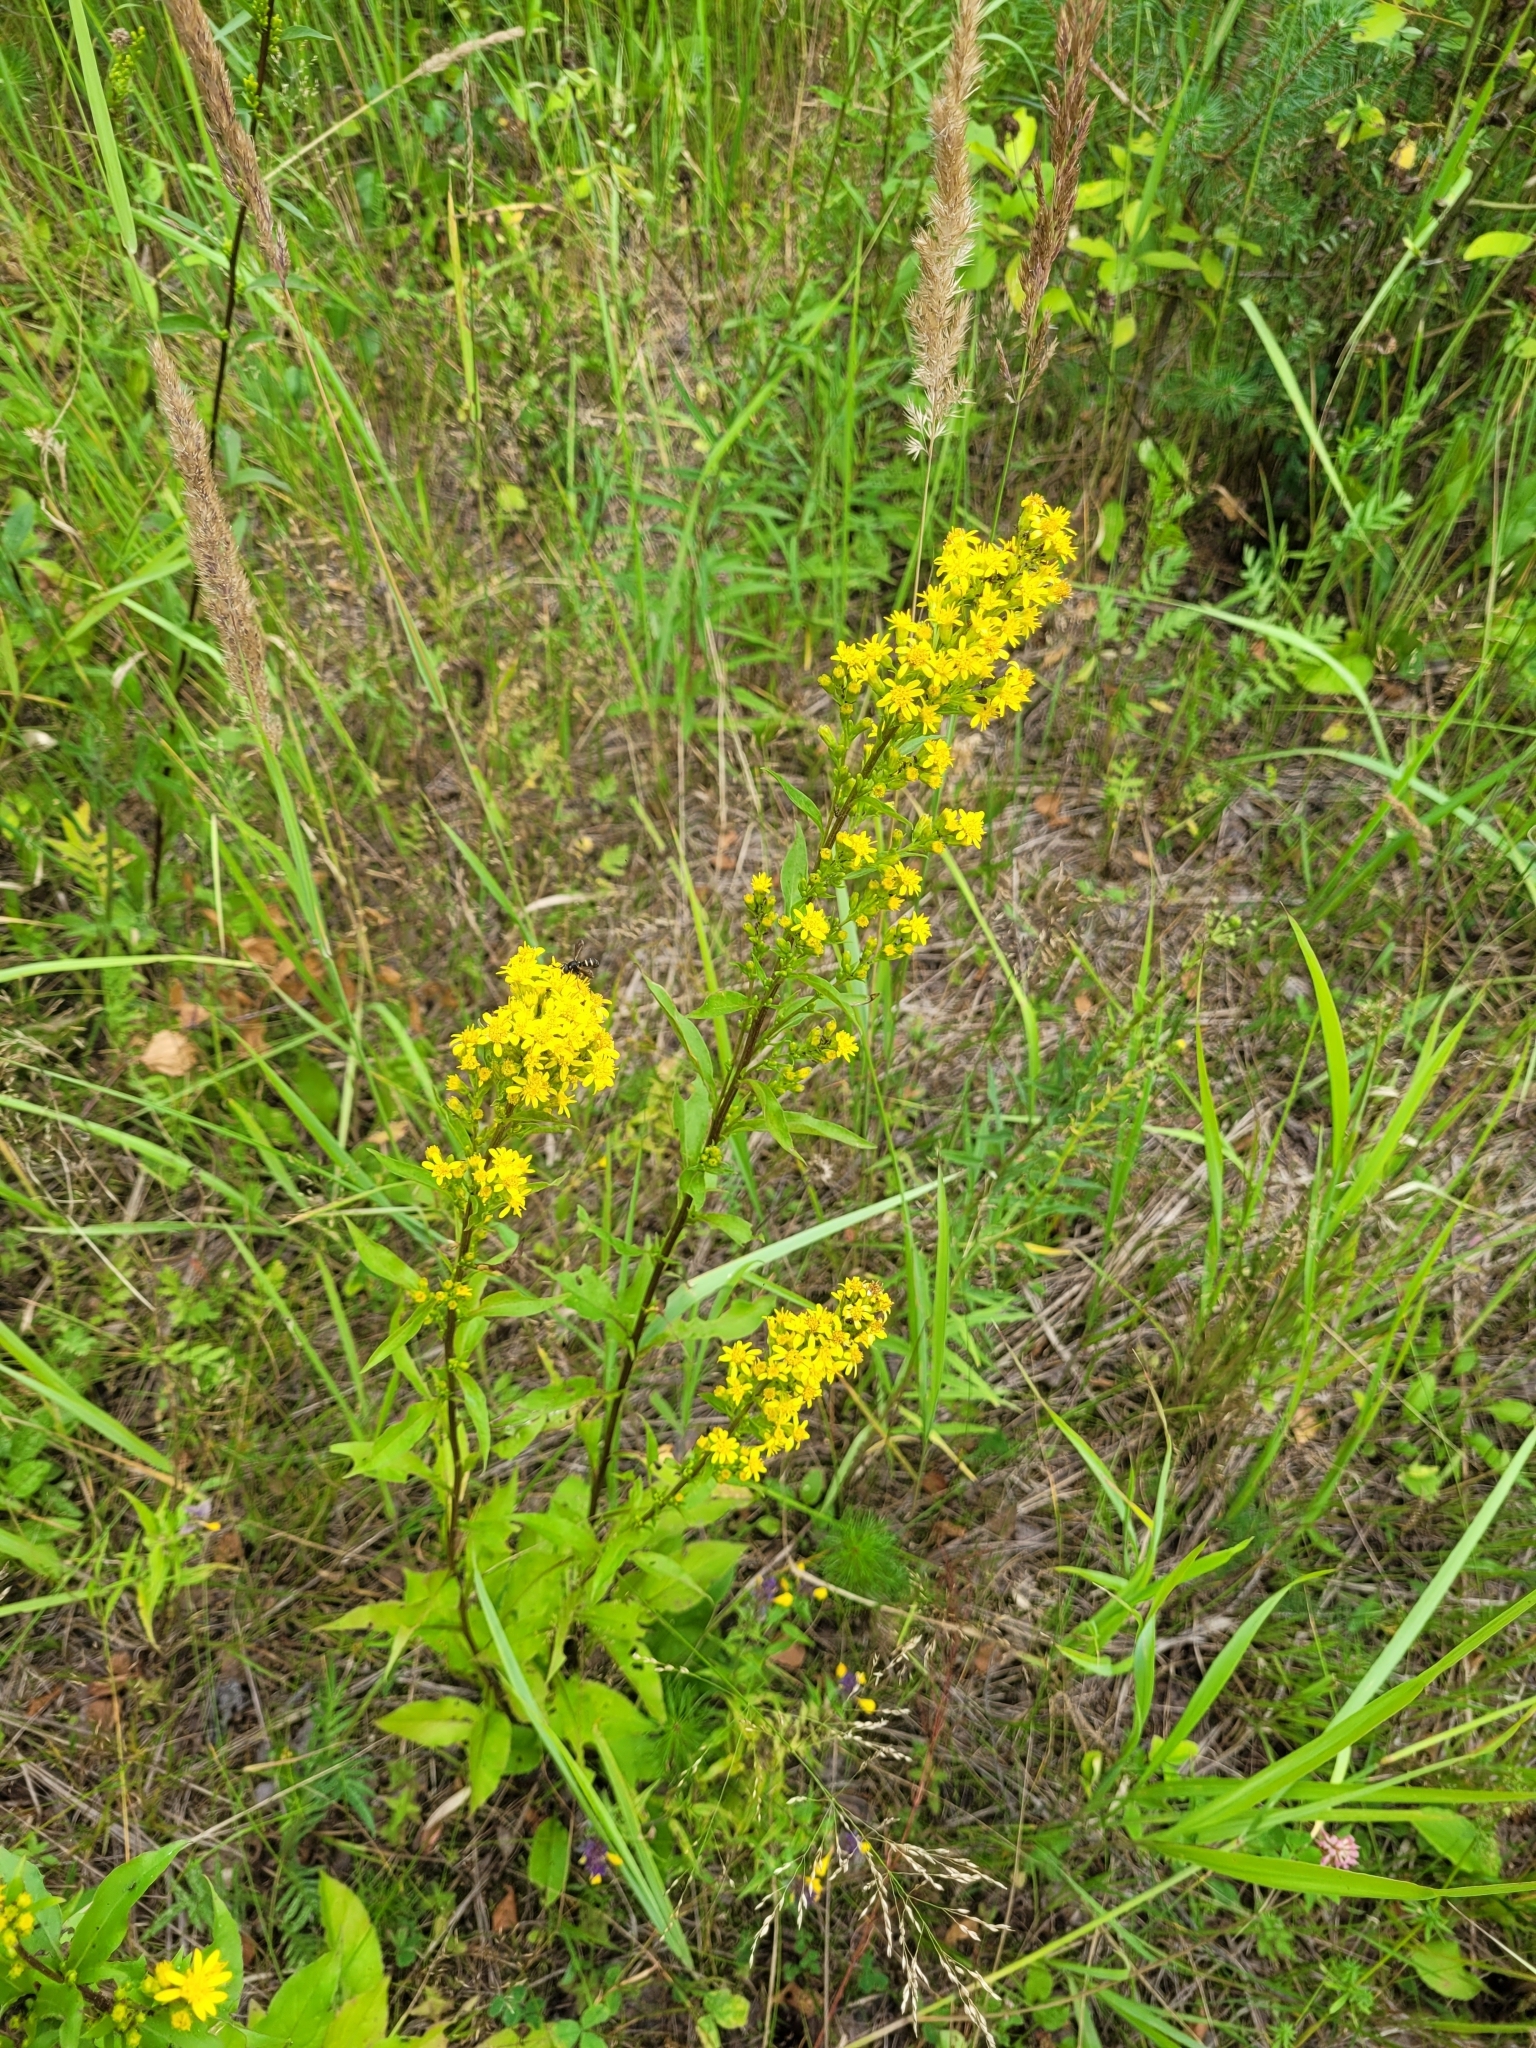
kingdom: Plantae
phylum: Tracheophyta
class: Magnoliopsida
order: Asterales
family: Asteraceae
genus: Solidago
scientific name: Solidago virgaurea
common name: Goldenrod
